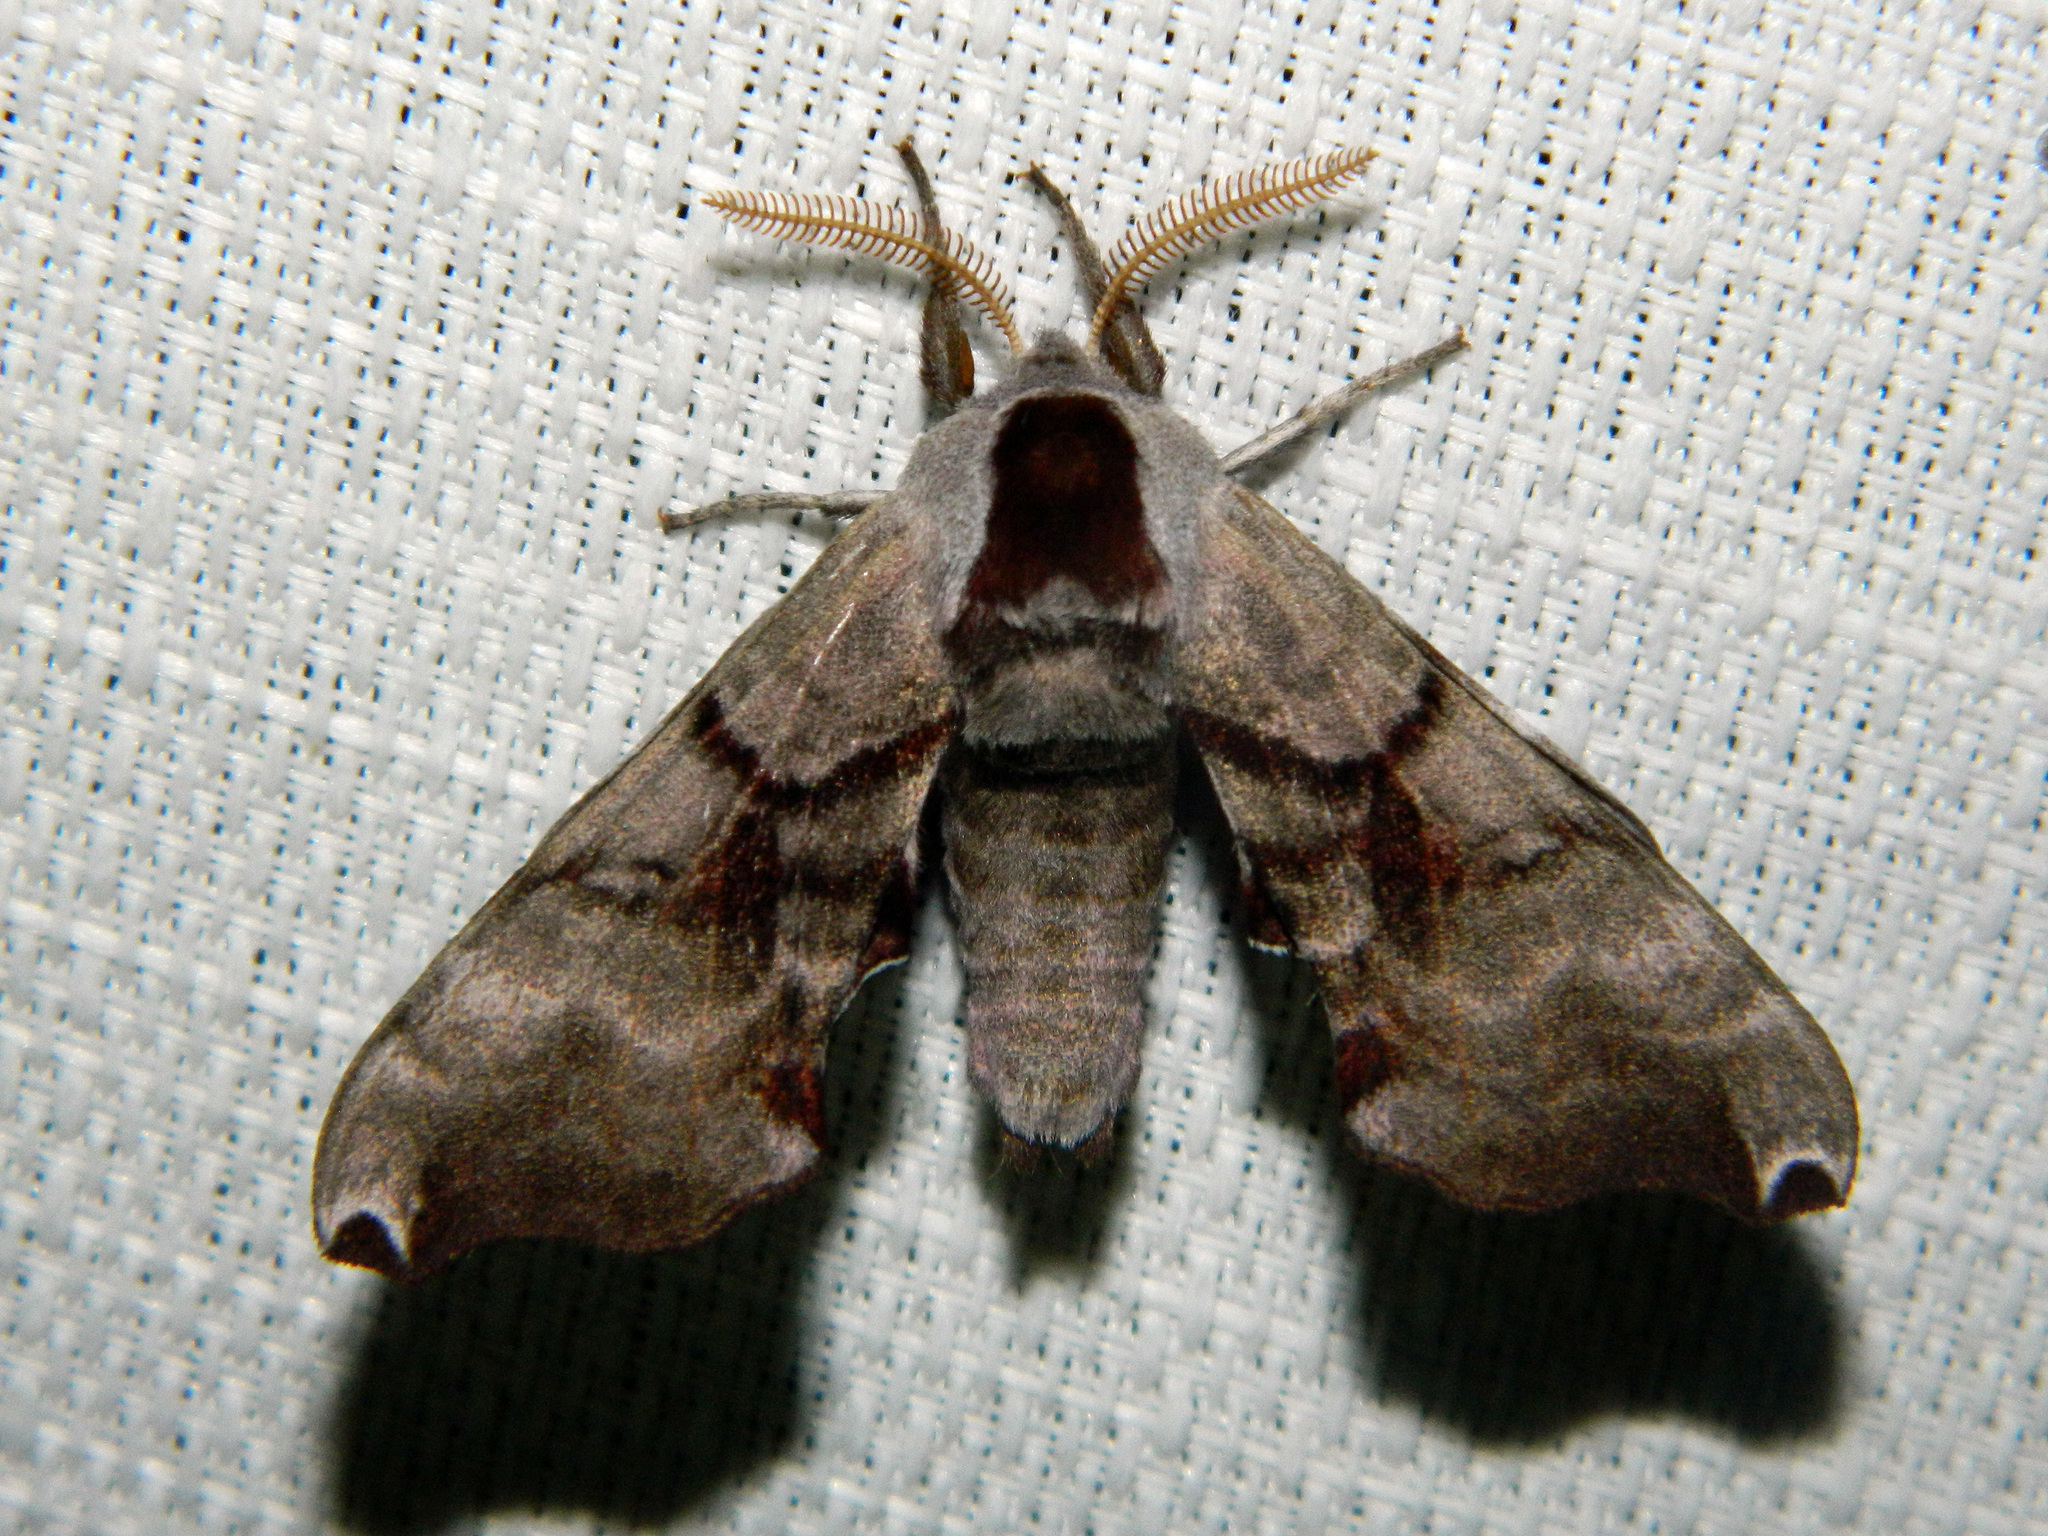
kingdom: Animalia
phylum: Arthropoda
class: Insecta
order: Lepidoptera
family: Sphingidae
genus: Smerinthus
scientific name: Smerinthus jamaicensis
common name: Twin spotted sphinx
